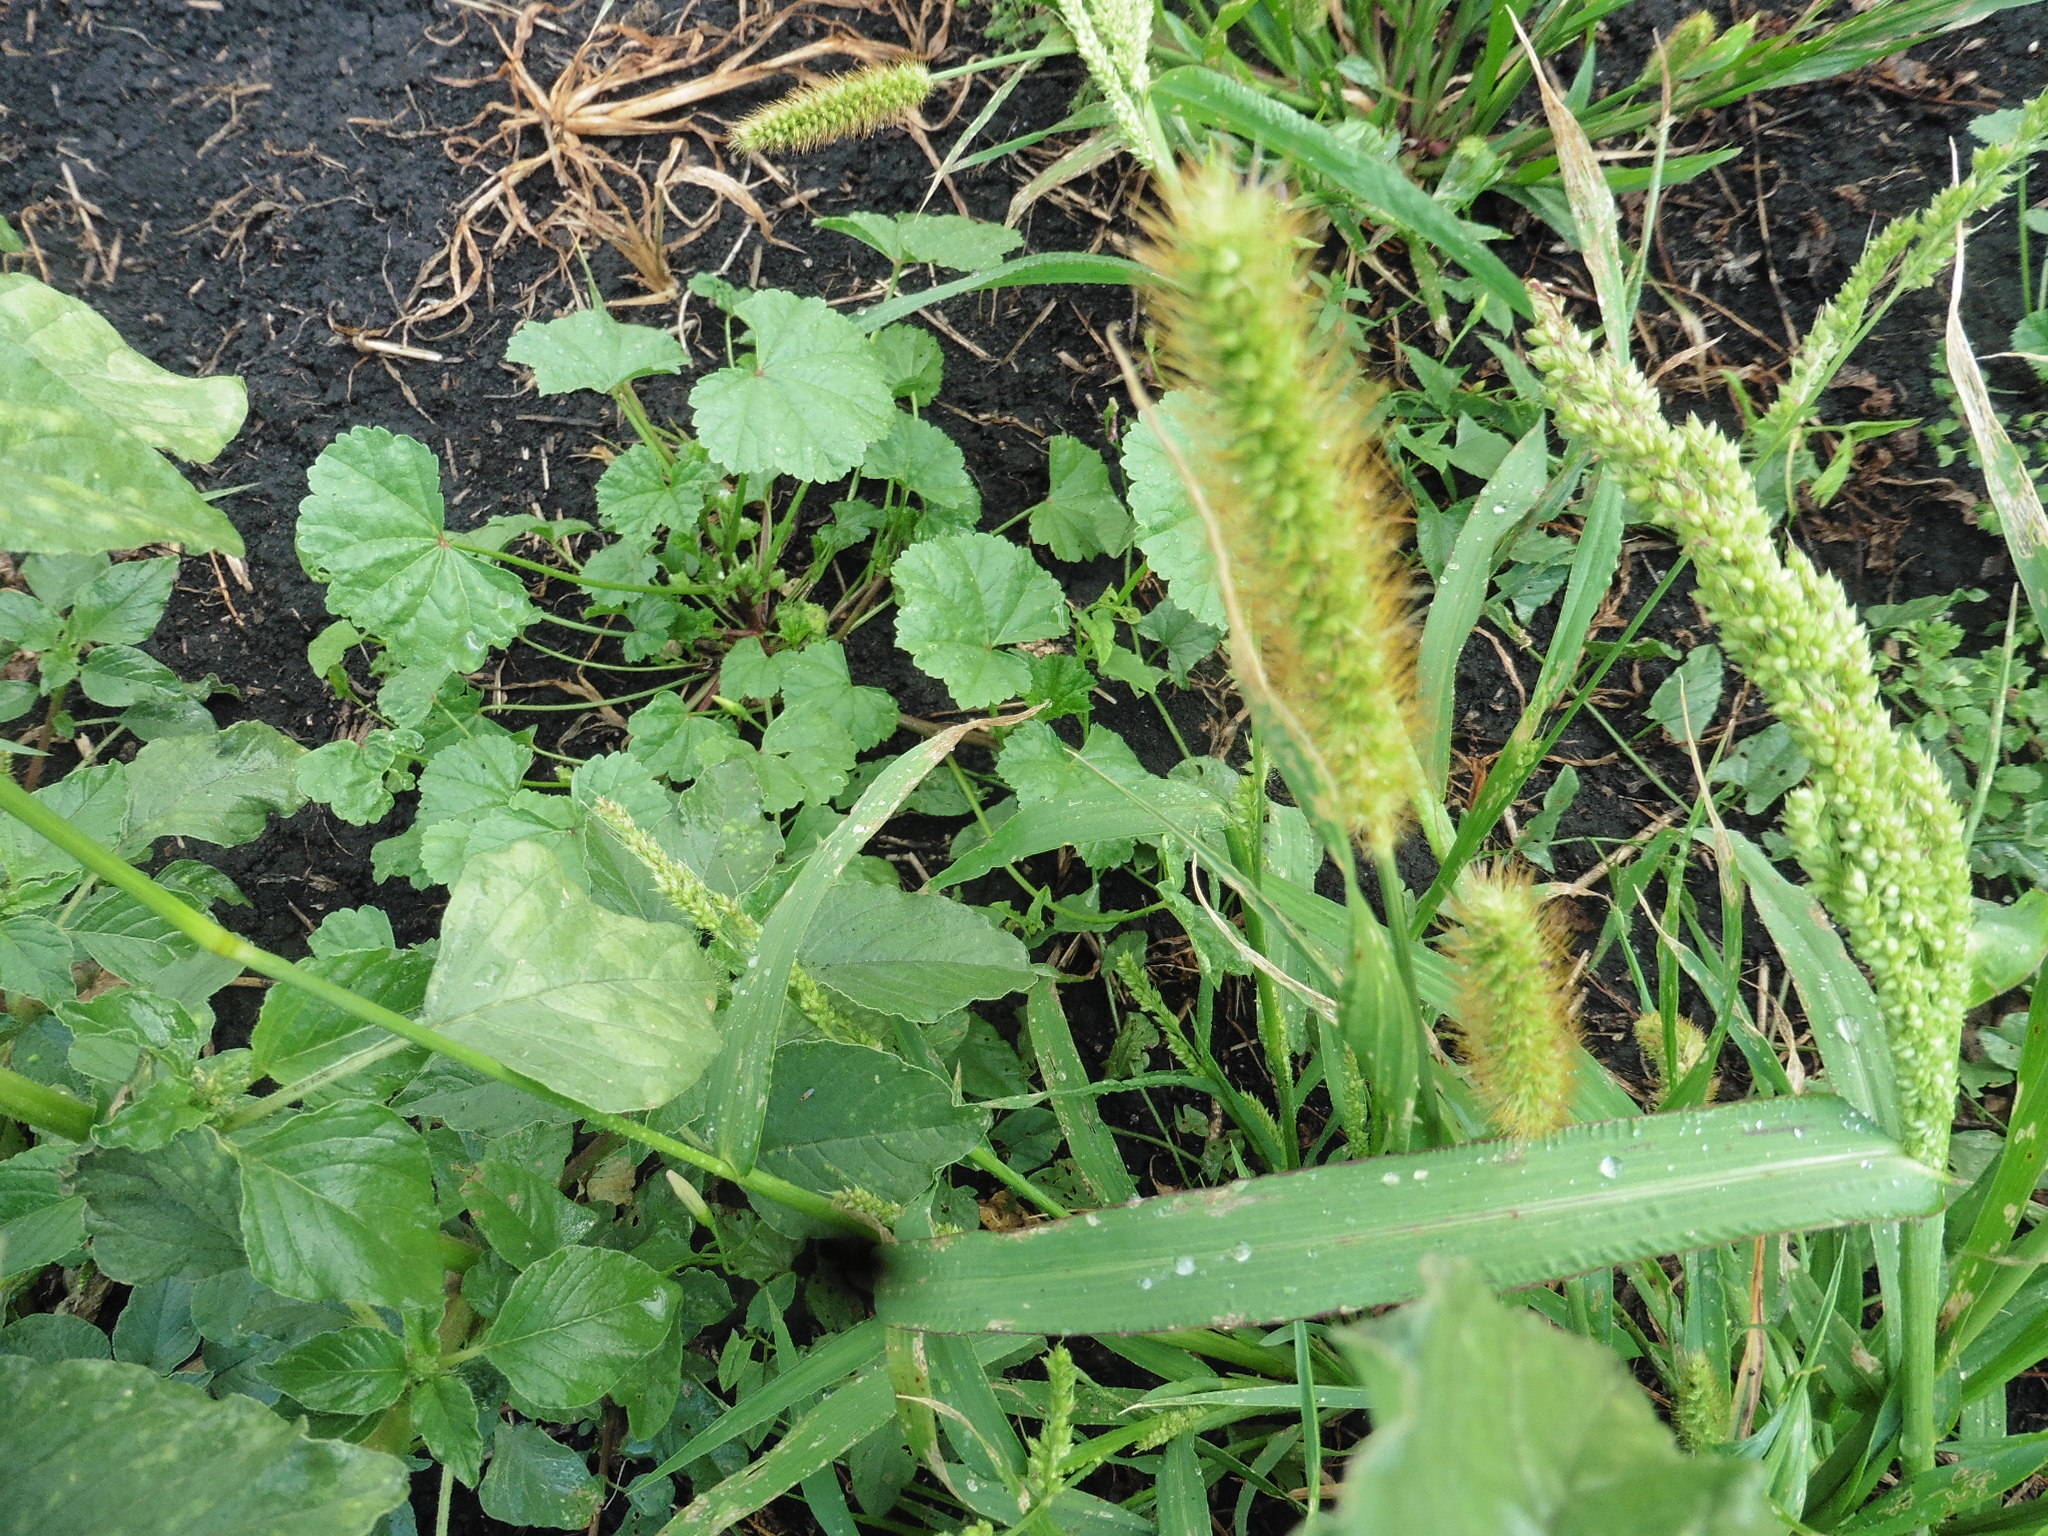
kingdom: Plantae
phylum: Tracheophyta
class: Liliopsida
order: Poales
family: Poaceae
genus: Setaria
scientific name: Setaria pumila
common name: Yellow bristle-grass
